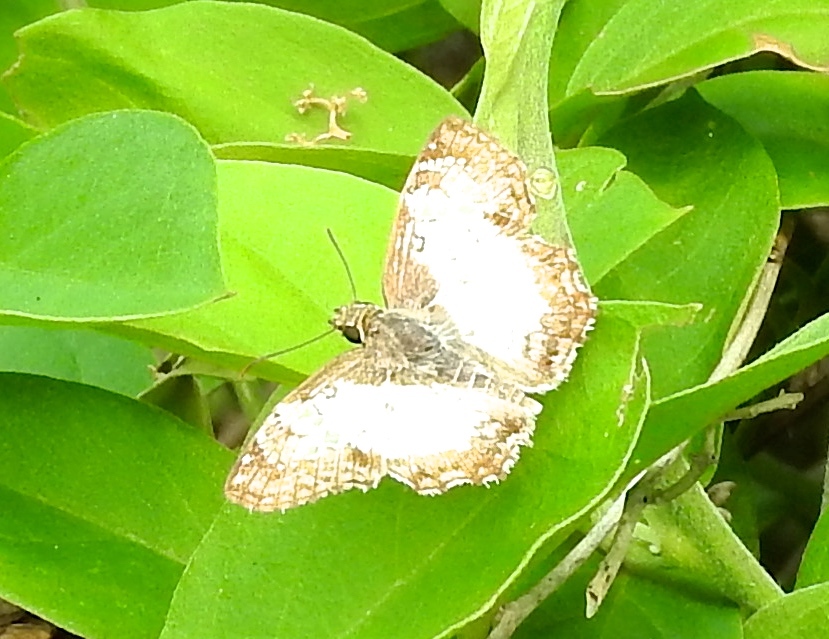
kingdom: Animalia
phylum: Arthropoda
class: Insecta
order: Lepidoptera
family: Hesperiidae
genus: Antigonus
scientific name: Antigonus emorsa
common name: White spurwing
